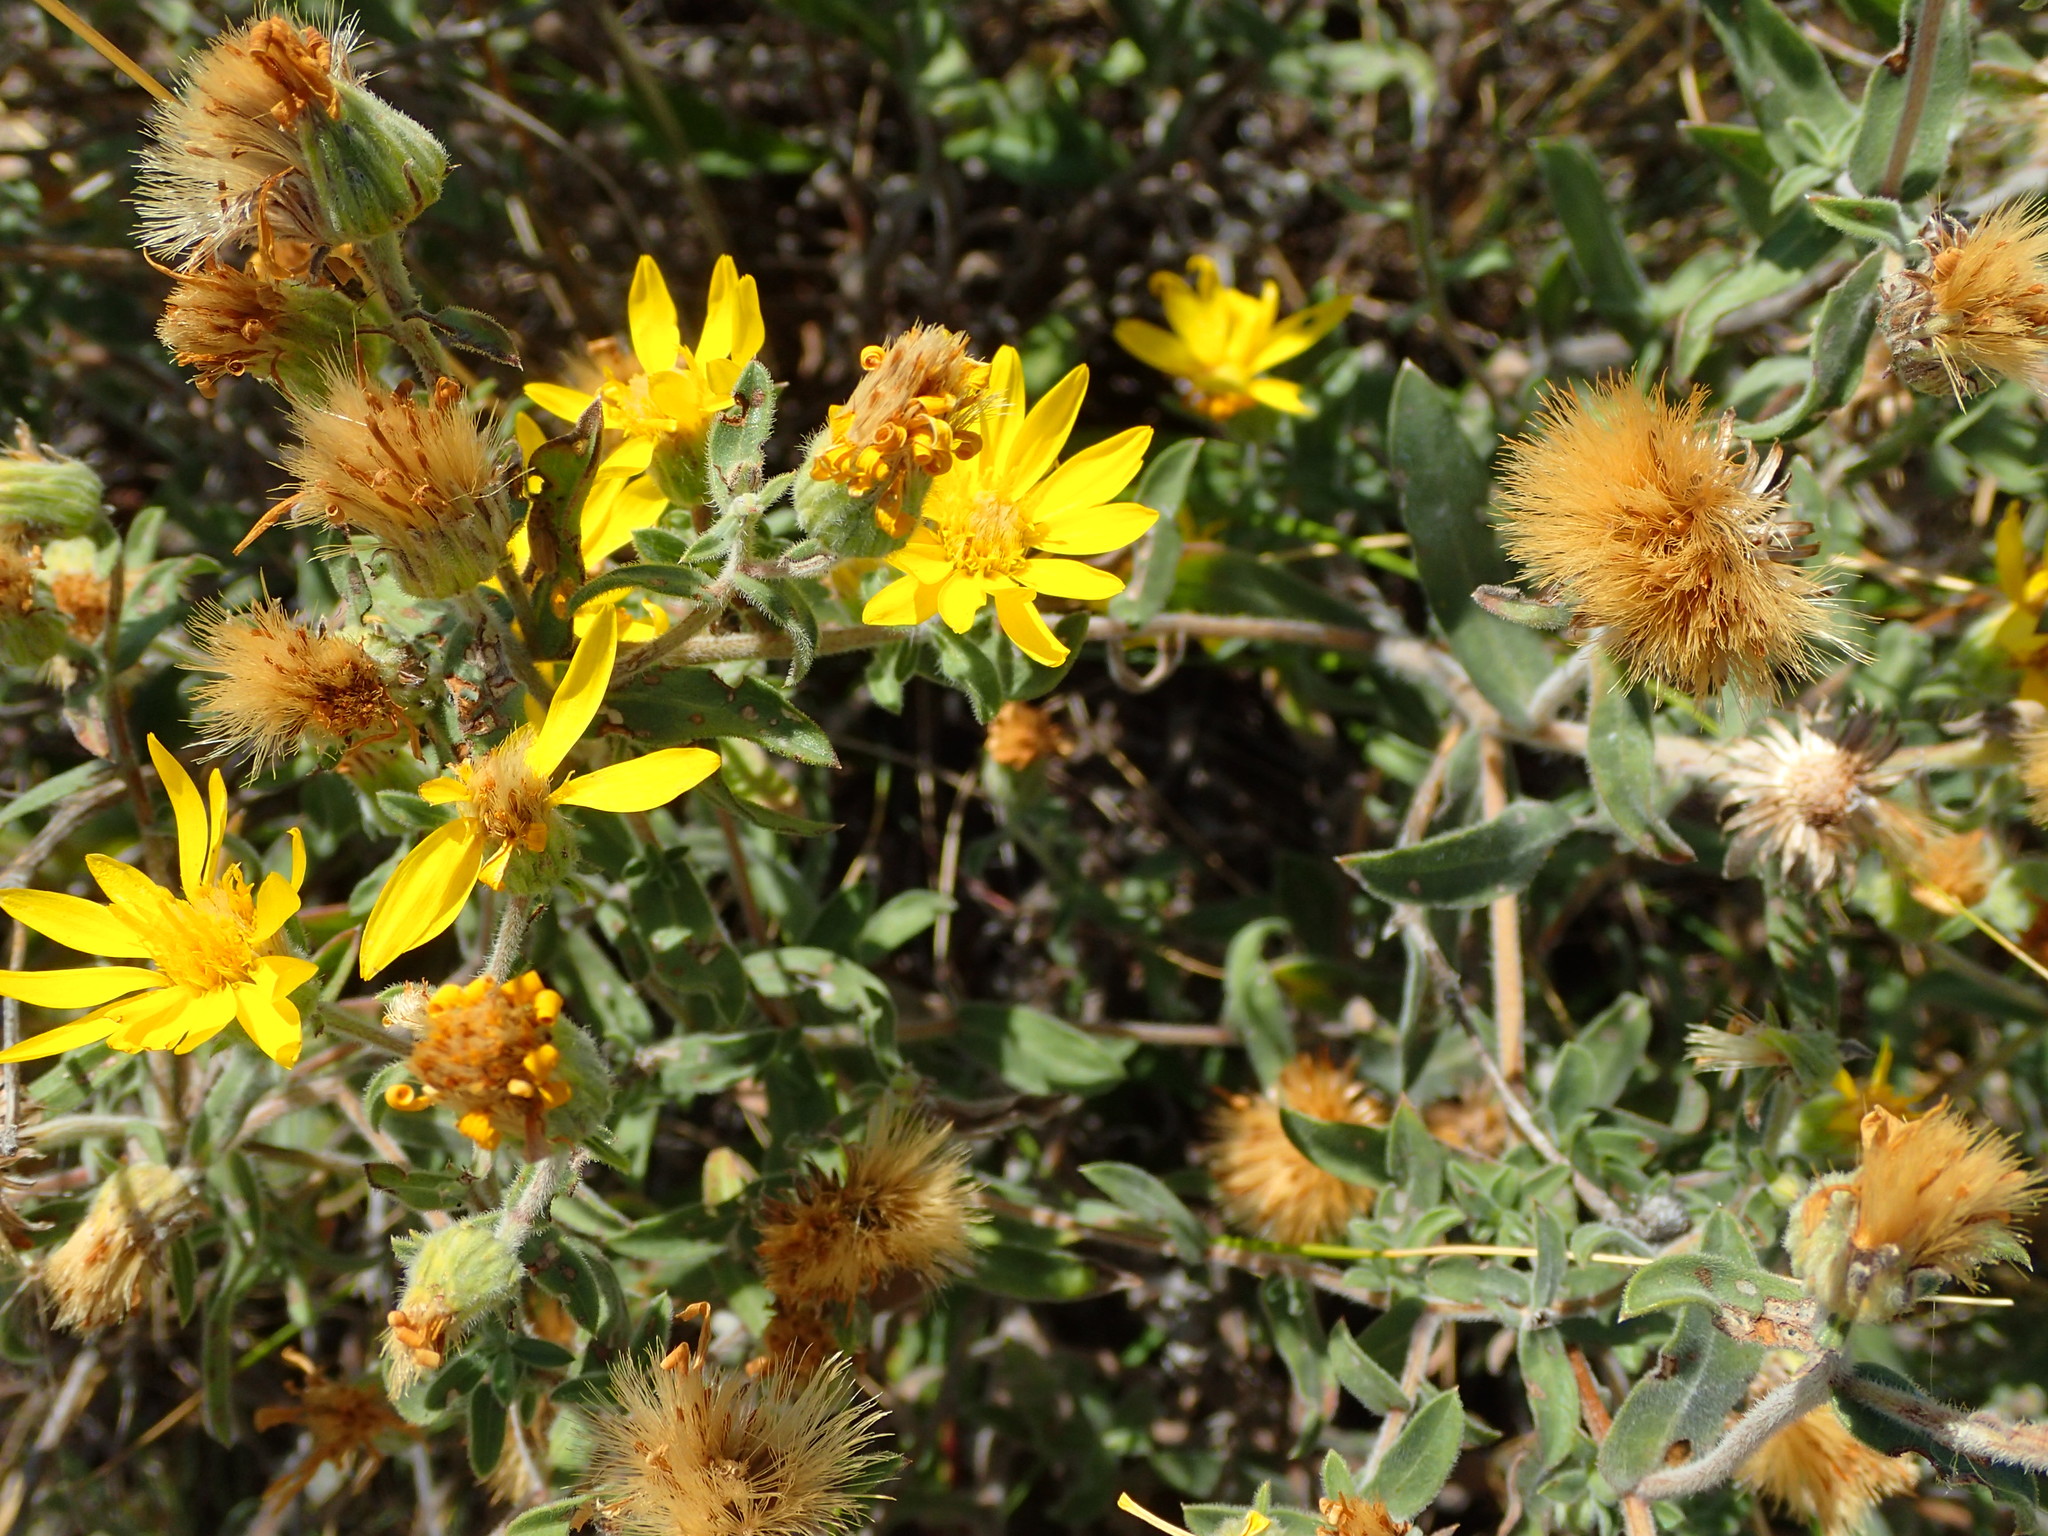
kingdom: Plantae
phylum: Tracheophyta
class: Magnoliopsida
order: Asterales
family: Asteraceae
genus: Heterotheca
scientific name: Heterotheca villosa
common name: Hairy false goldenaster
